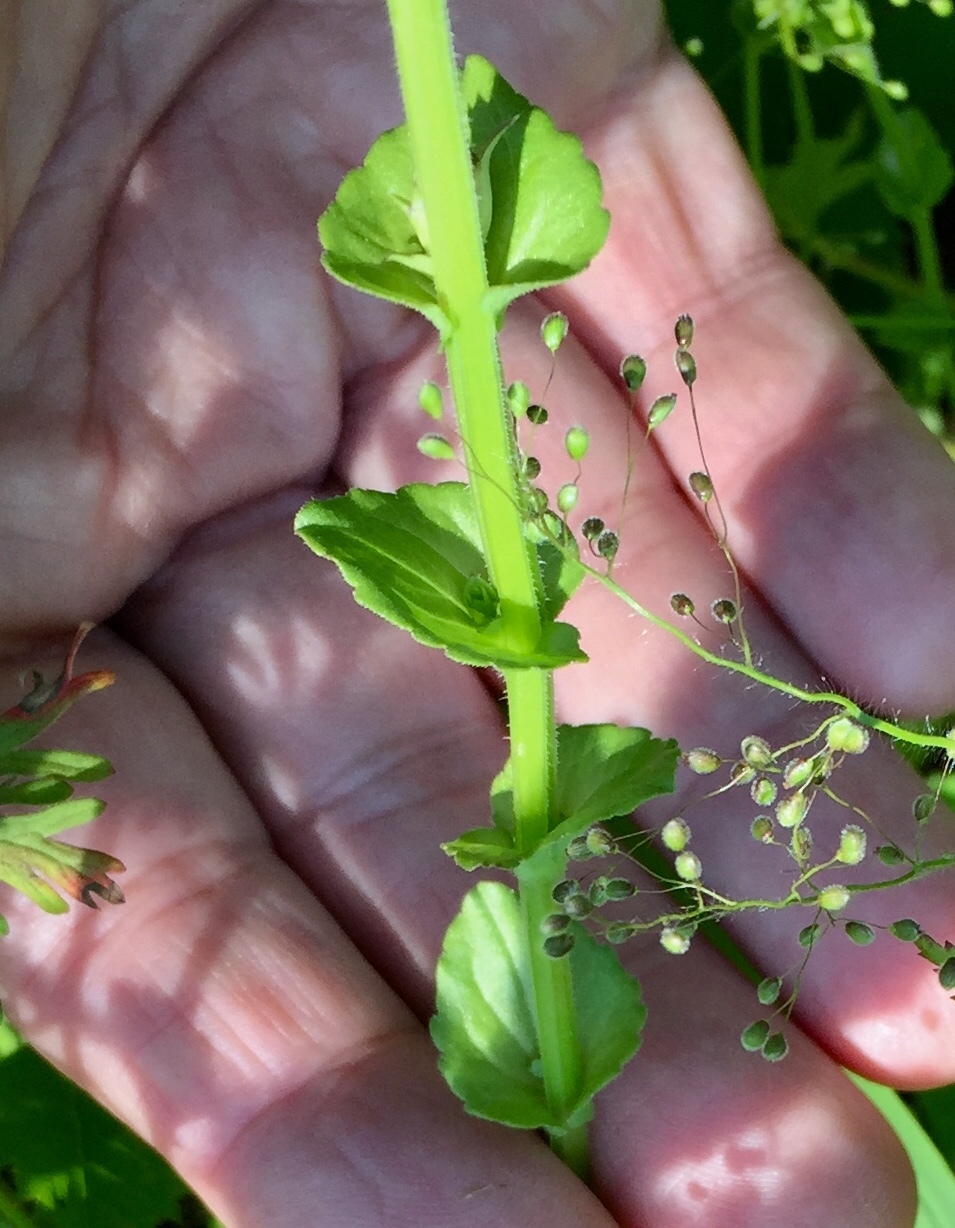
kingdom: Plantae
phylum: Tracheophyta
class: Magnoliopsida
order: Asterales
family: Campanulaceae
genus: Triodanis
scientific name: Triodanis perfoliata
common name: Clasping venus' looking-glass
